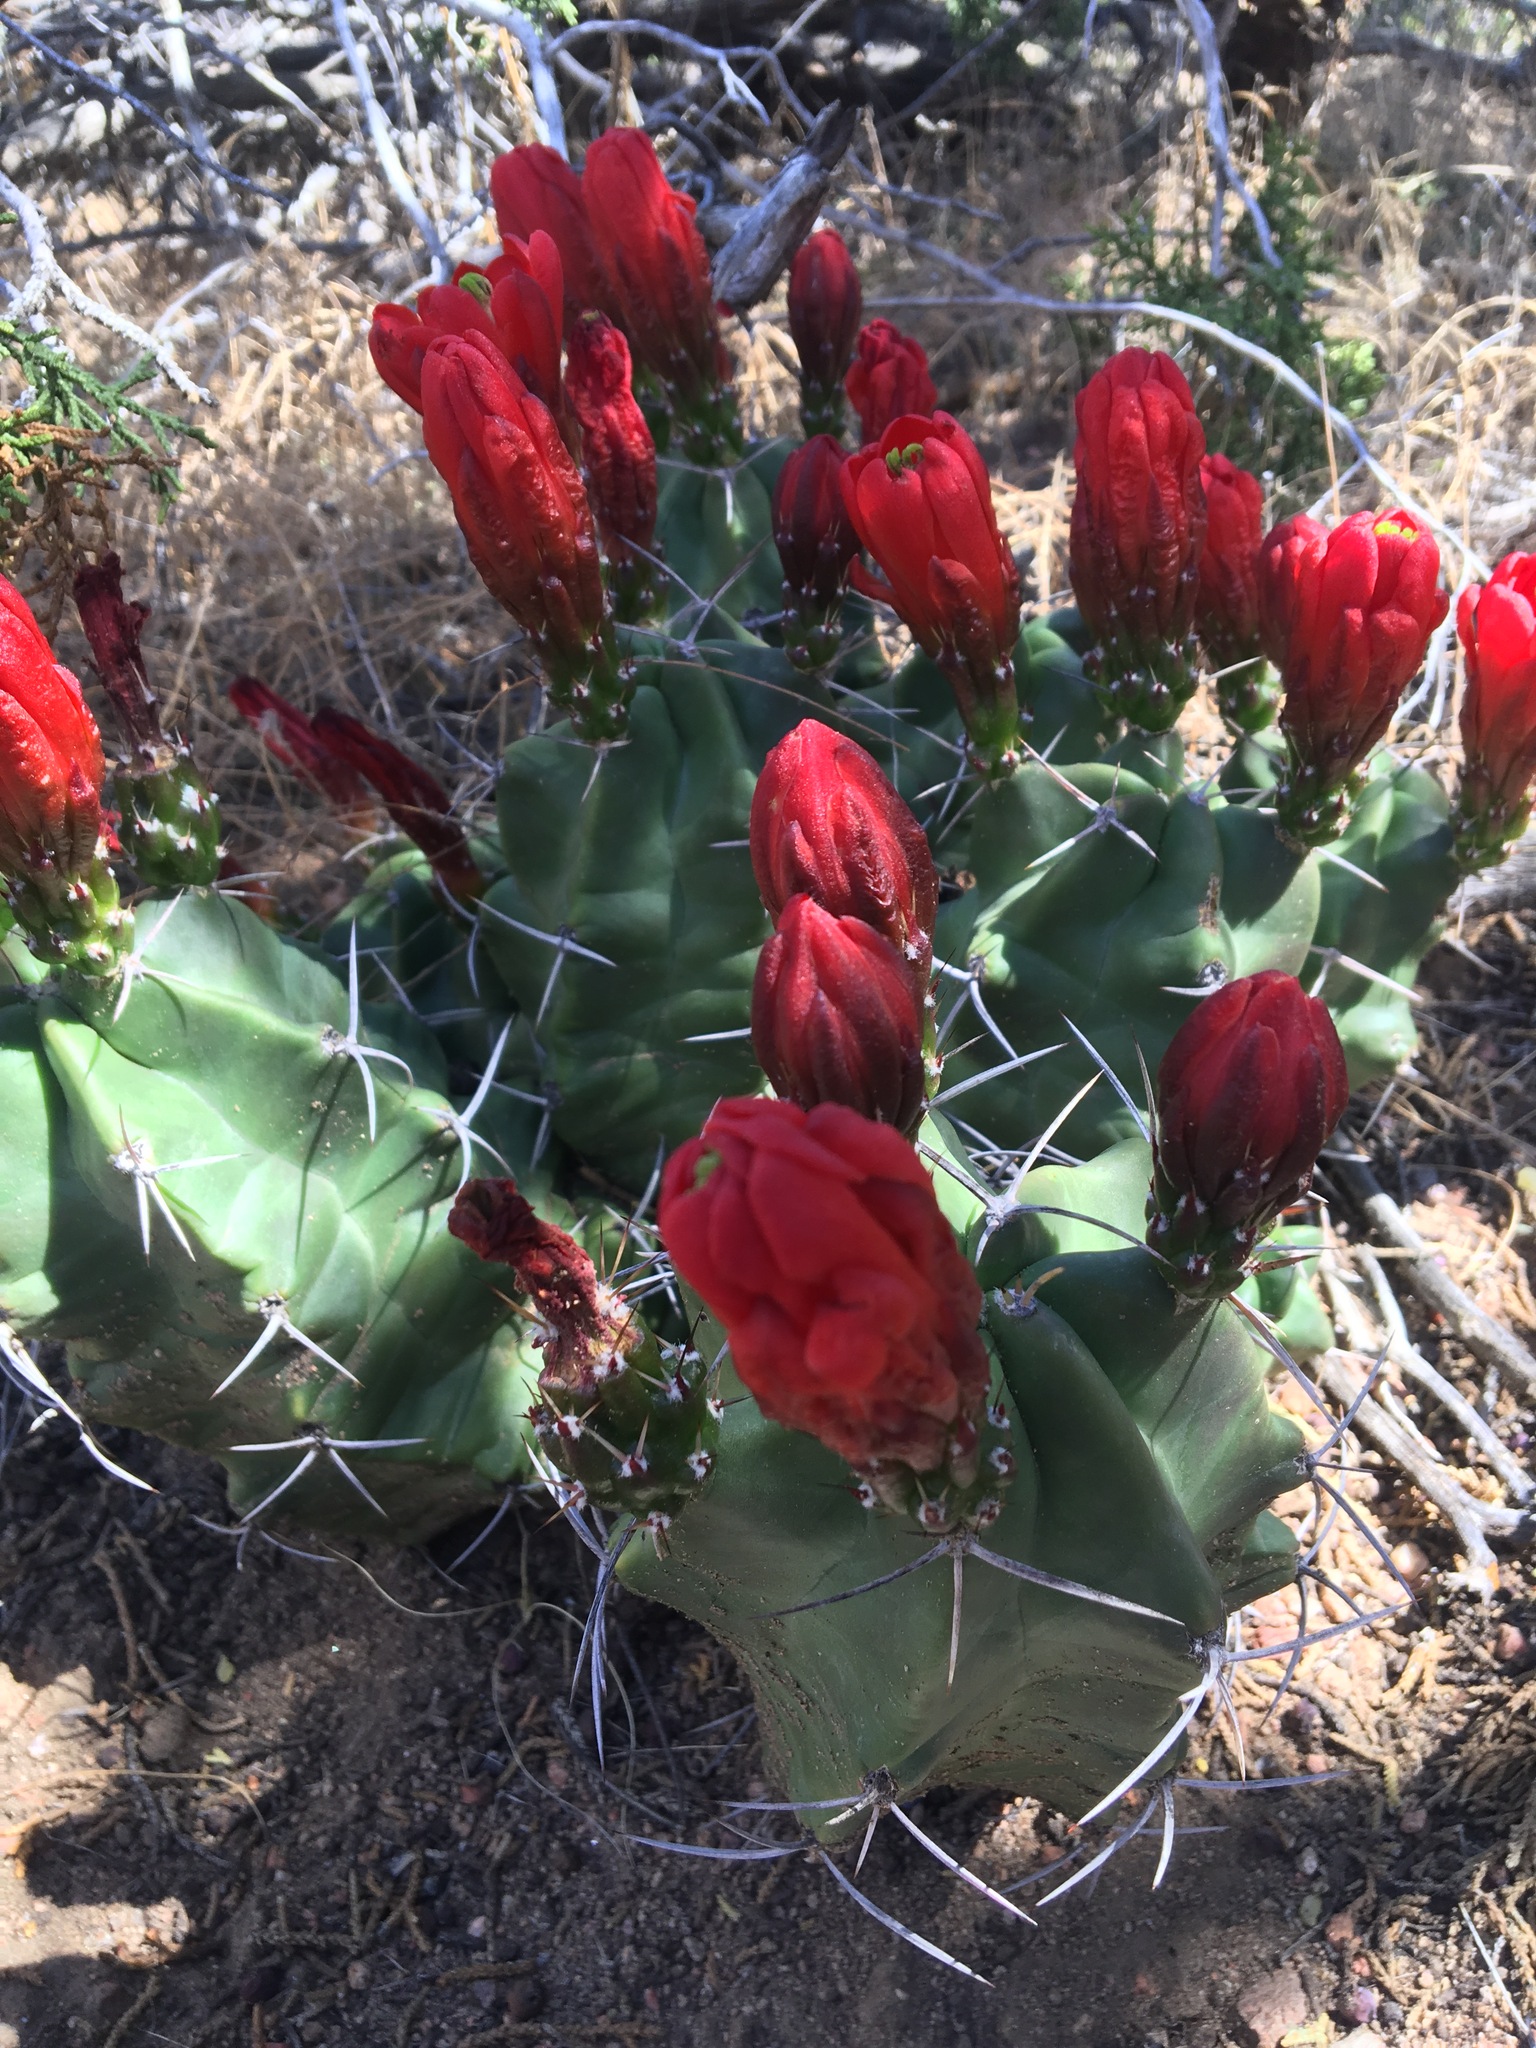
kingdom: Plantae
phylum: Tracheophyta
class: Magnoliopsida
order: Caryophyllales
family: Cactaceae
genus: Echinocereus
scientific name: Echinocereus triglochidiatus
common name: Claretcup hedgehog
